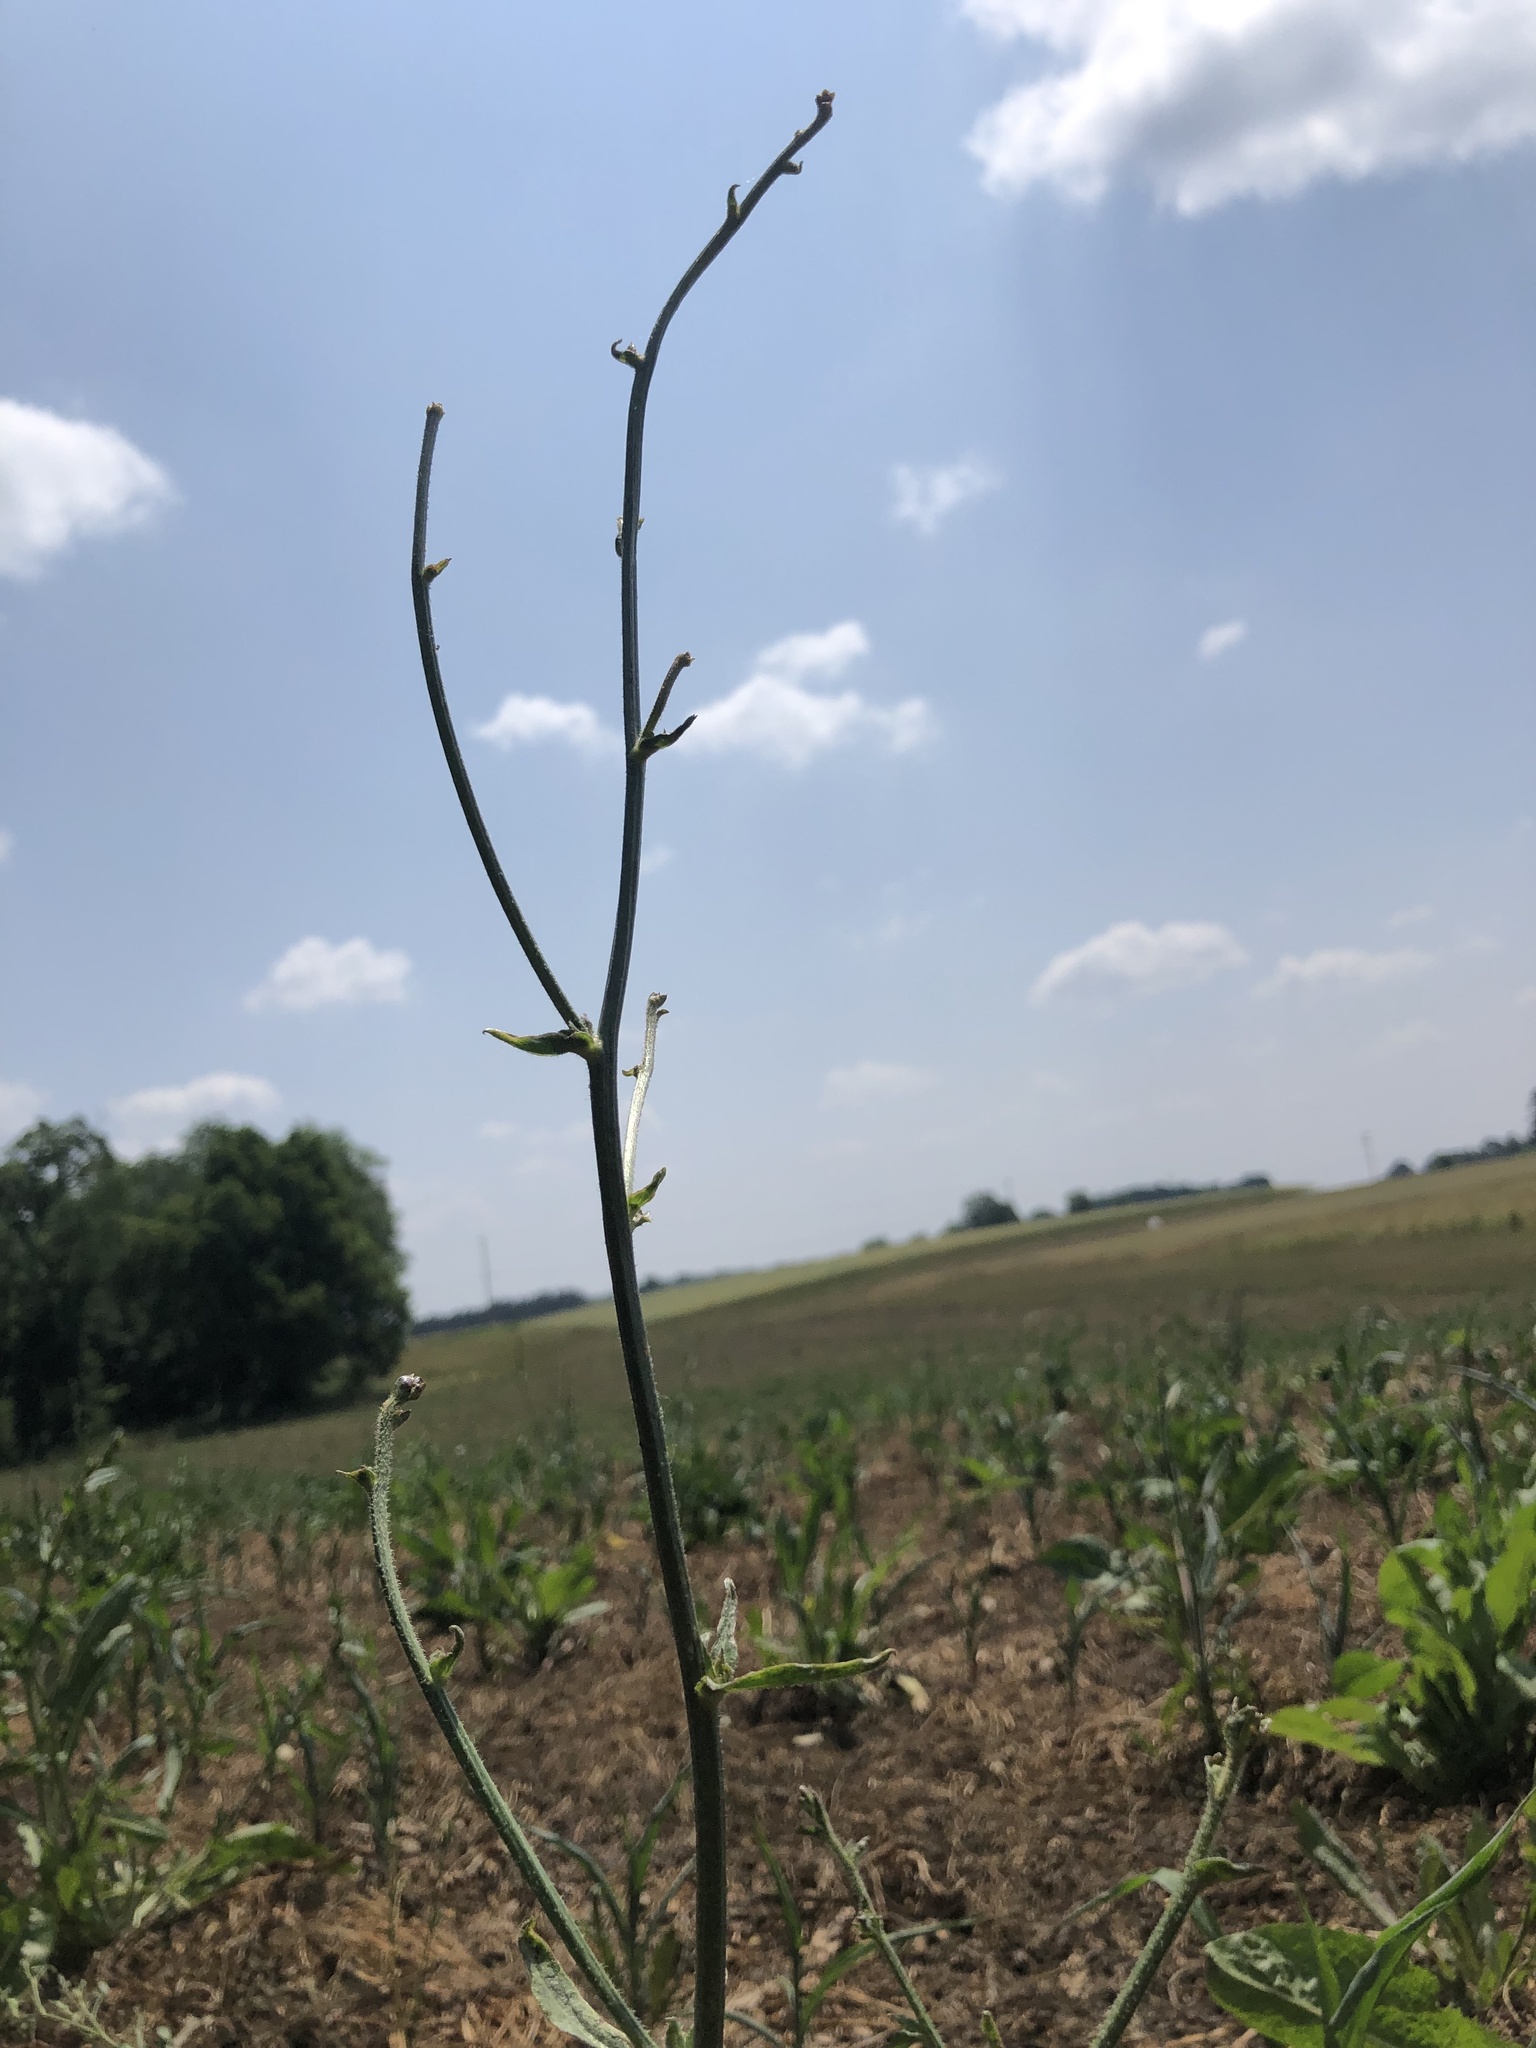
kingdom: Plantae
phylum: Tracheophyta
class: Magnoliopsida
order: Asterales
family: Asteraceae
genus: Cichorium
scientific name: Cichorium intybus
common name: Chicory
